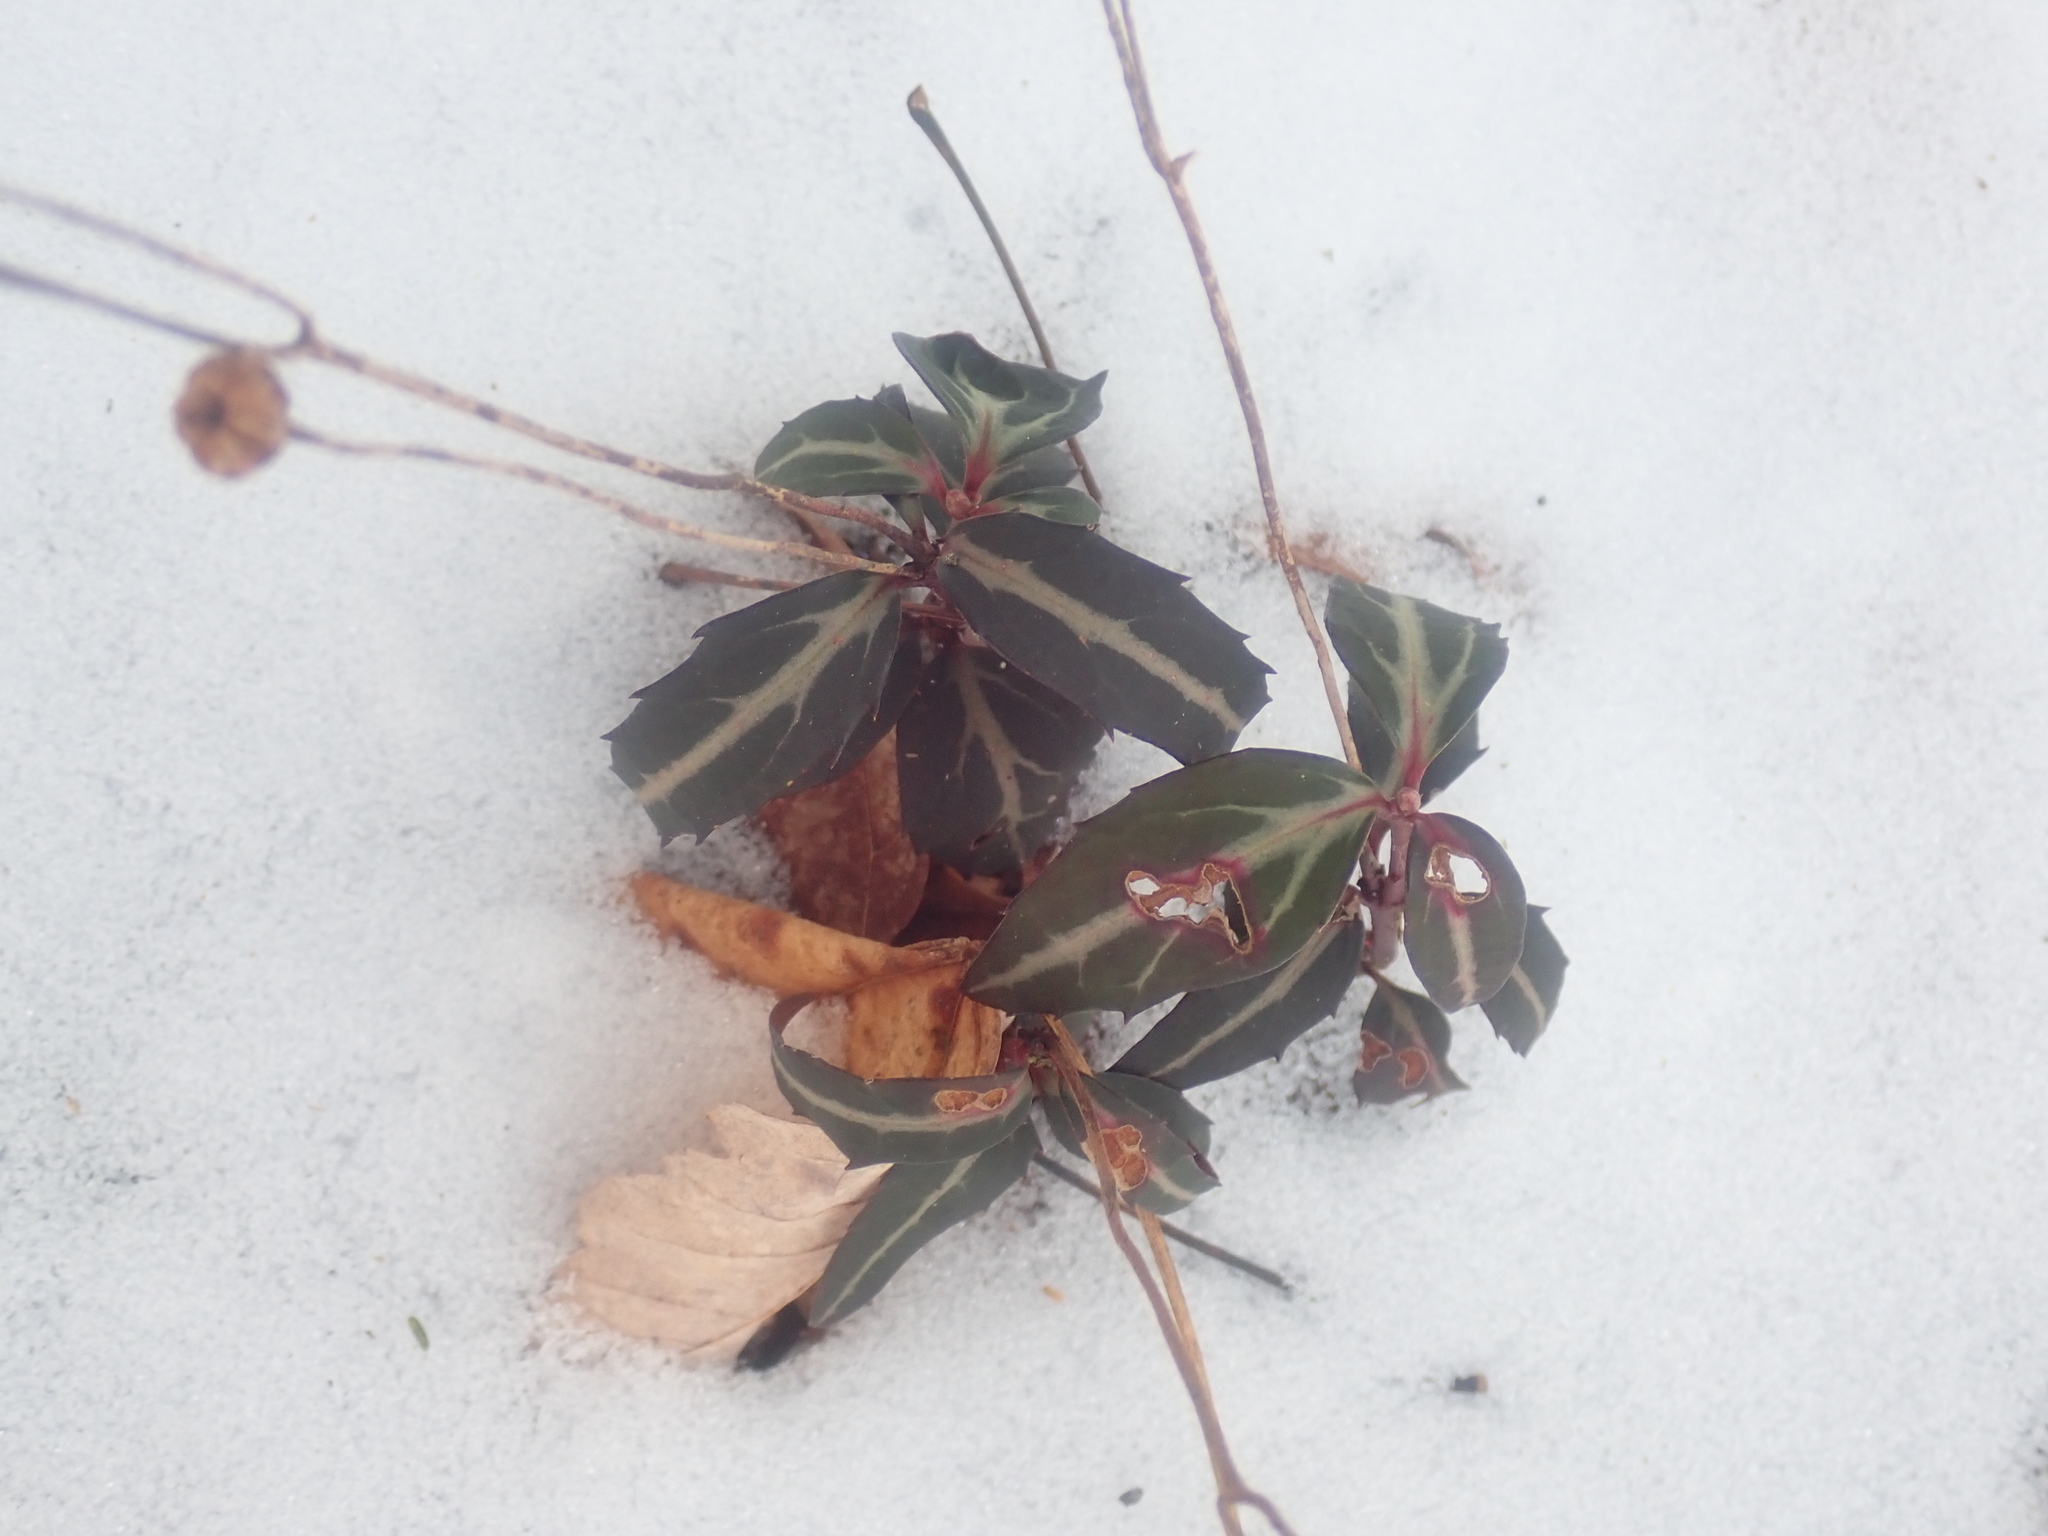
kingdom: Plantae
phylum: Tracheophyta
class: Magnoliopsida
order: Ericales
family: Ericaceae
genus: Chimaphila
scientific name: Chimaphila maculata
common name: Spotted pipsissewa
